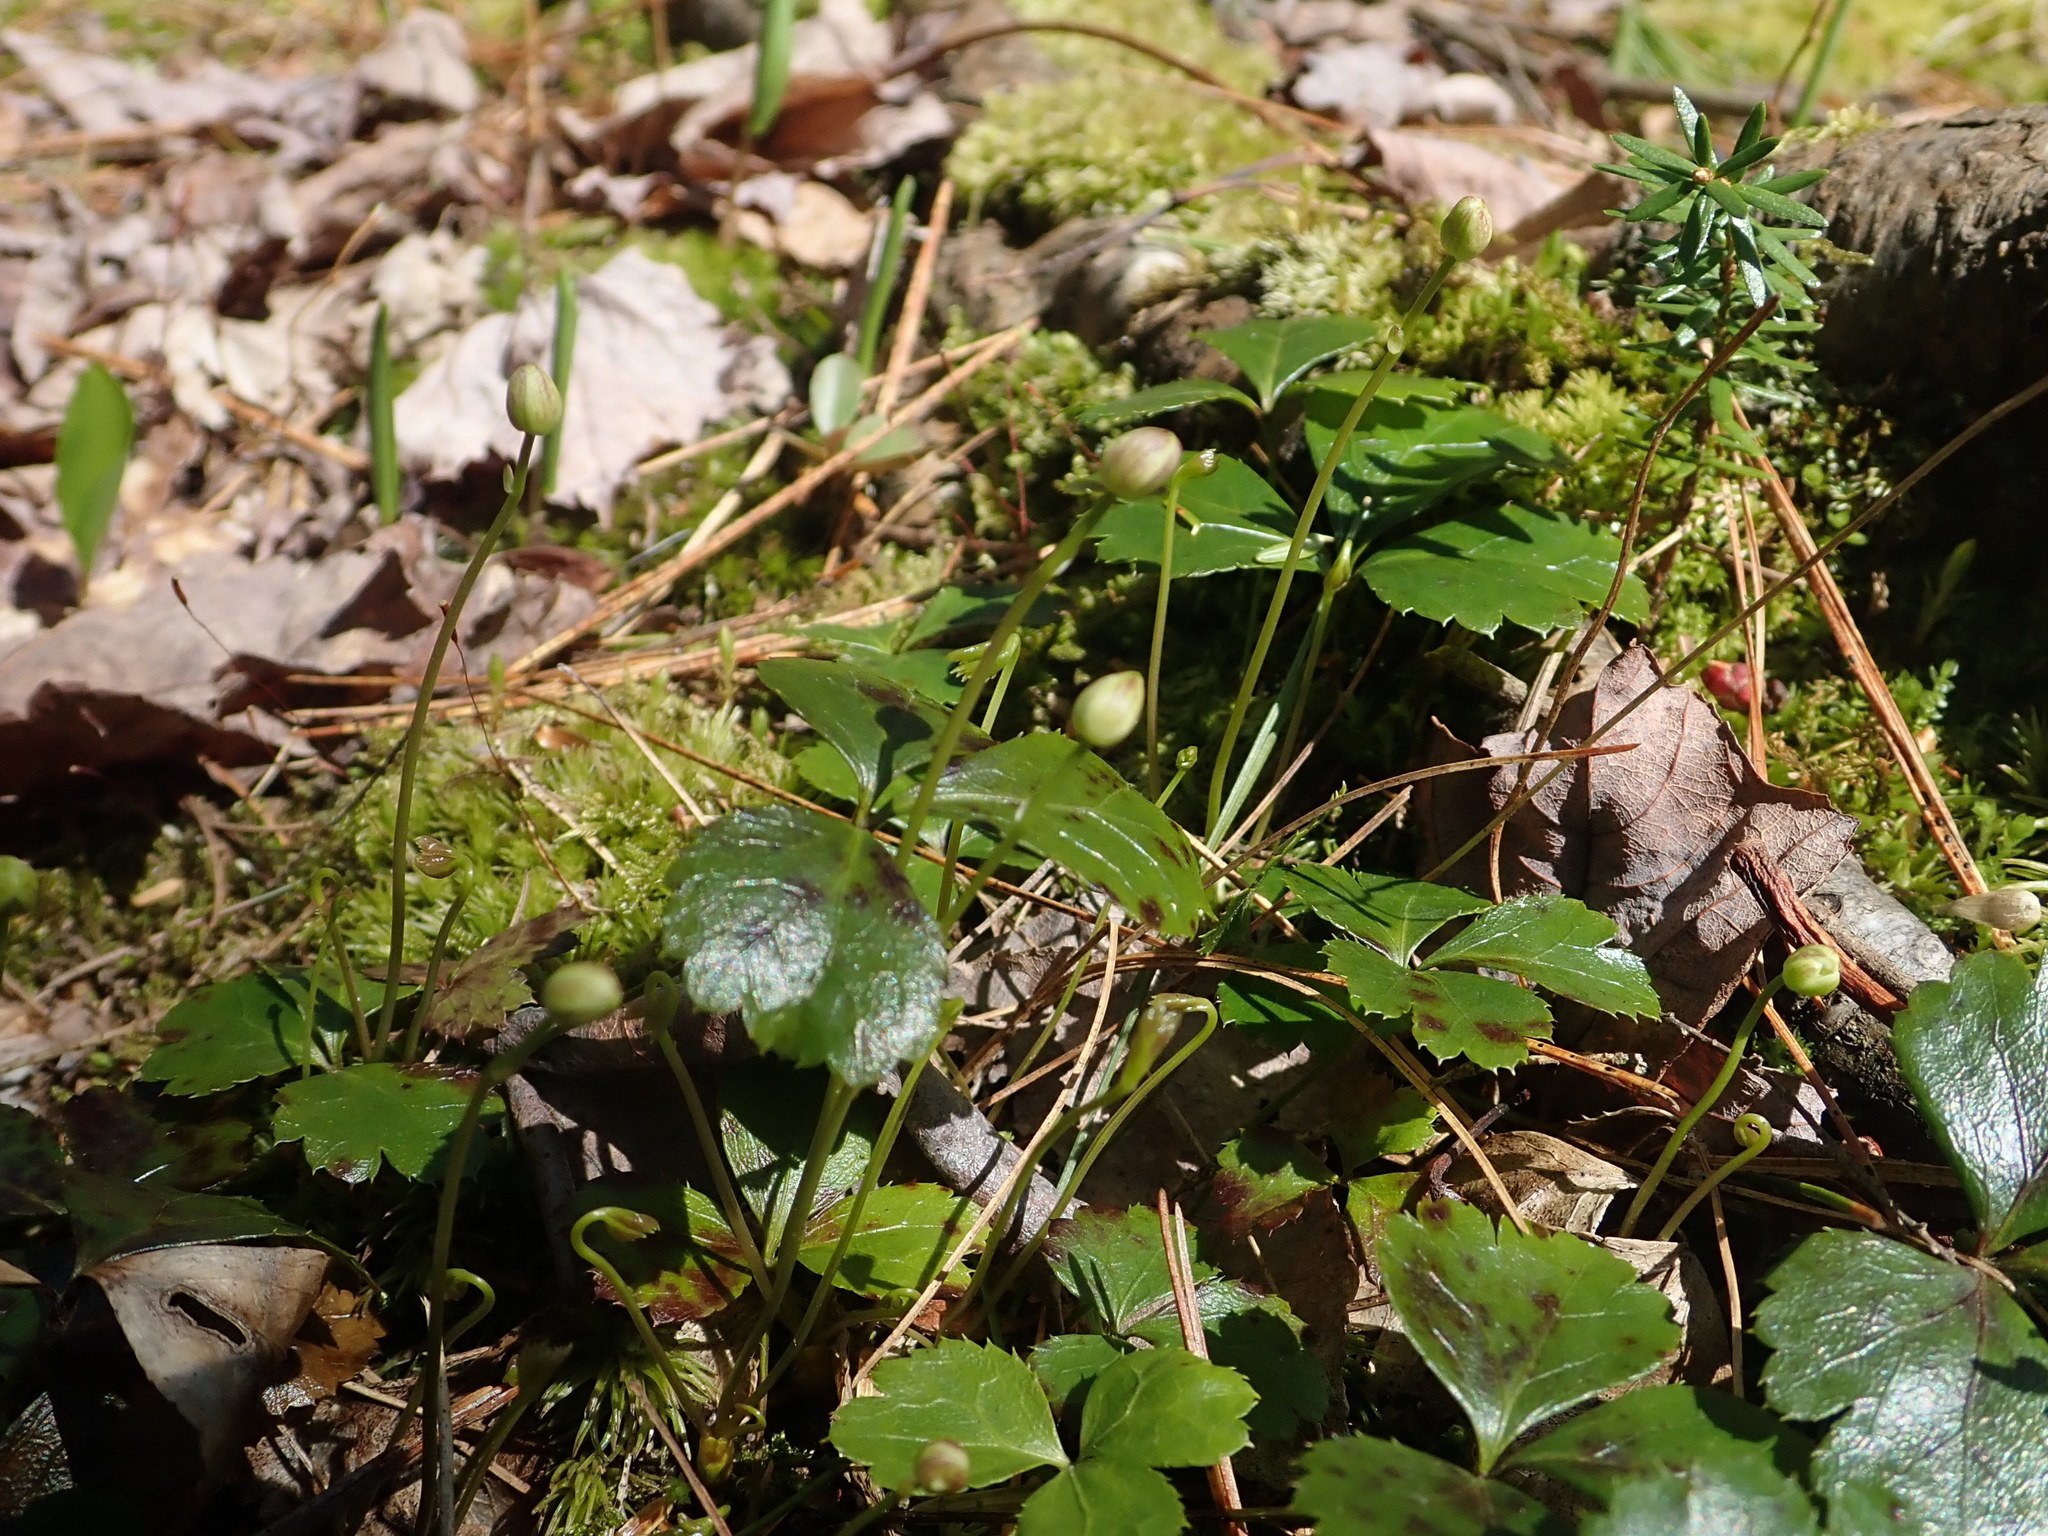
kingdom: Plantae
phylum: Tracheophyta
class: Magnoliopsida
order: Ranunculales
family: Ranunculaceae
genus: Coptis
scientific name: Coptis trifolia
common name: Canker-root
